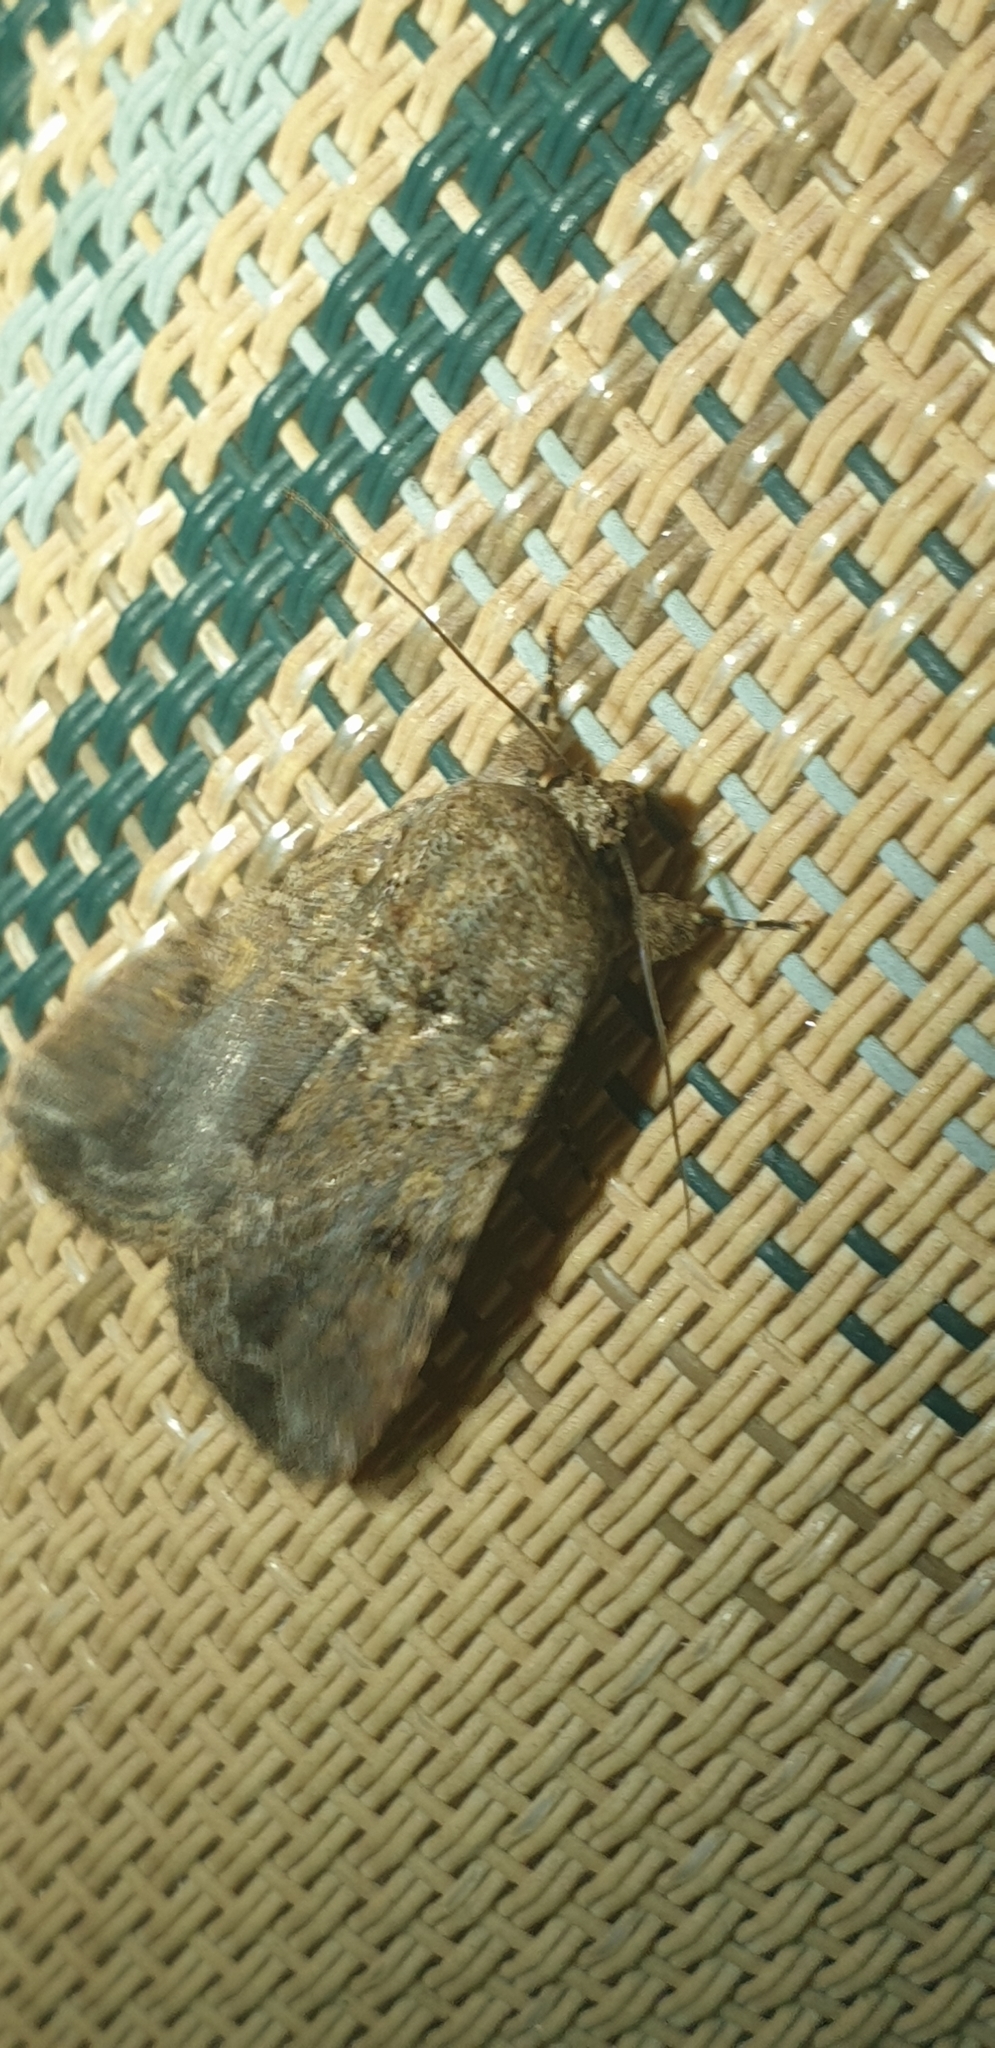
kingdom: Animalia
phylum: Arthropoda
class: Insecta
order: Lepidoptera
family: Noctuidae
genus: Spodoptera
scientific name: Spodoptera mauritia
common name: Lawn armyworm
